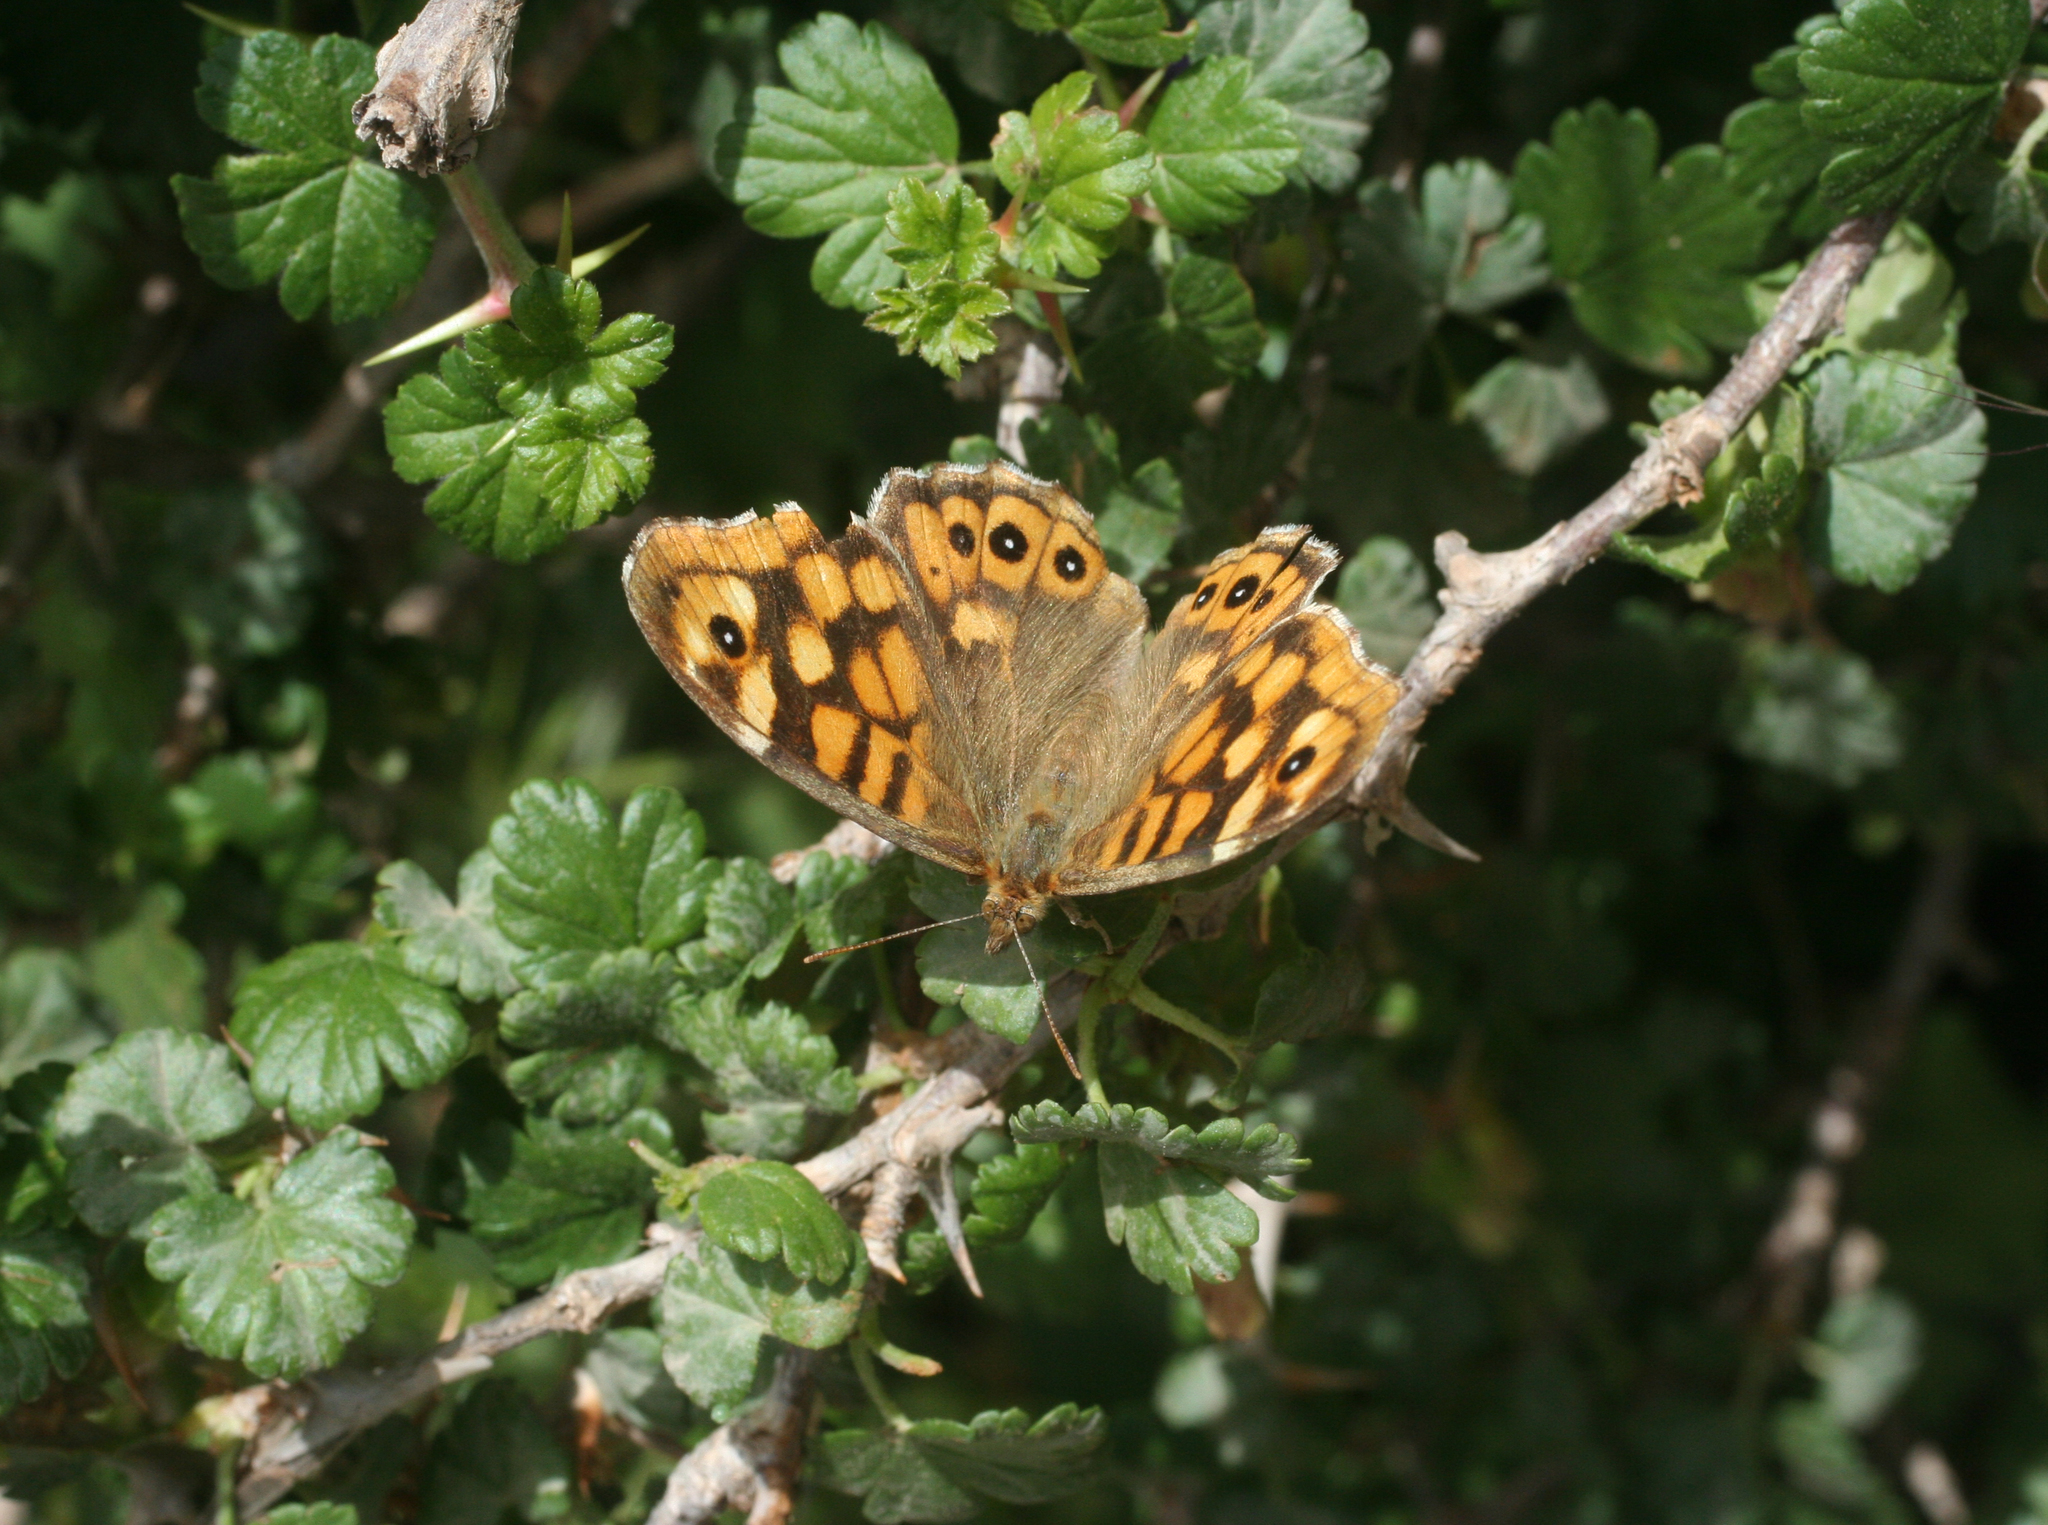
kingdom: Animalia
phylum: Arthropoda
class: Insecta
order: Lepidoptera
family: Nymphalidae
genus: Pararge
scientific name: Pararge aegeria
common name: Speckled wood
